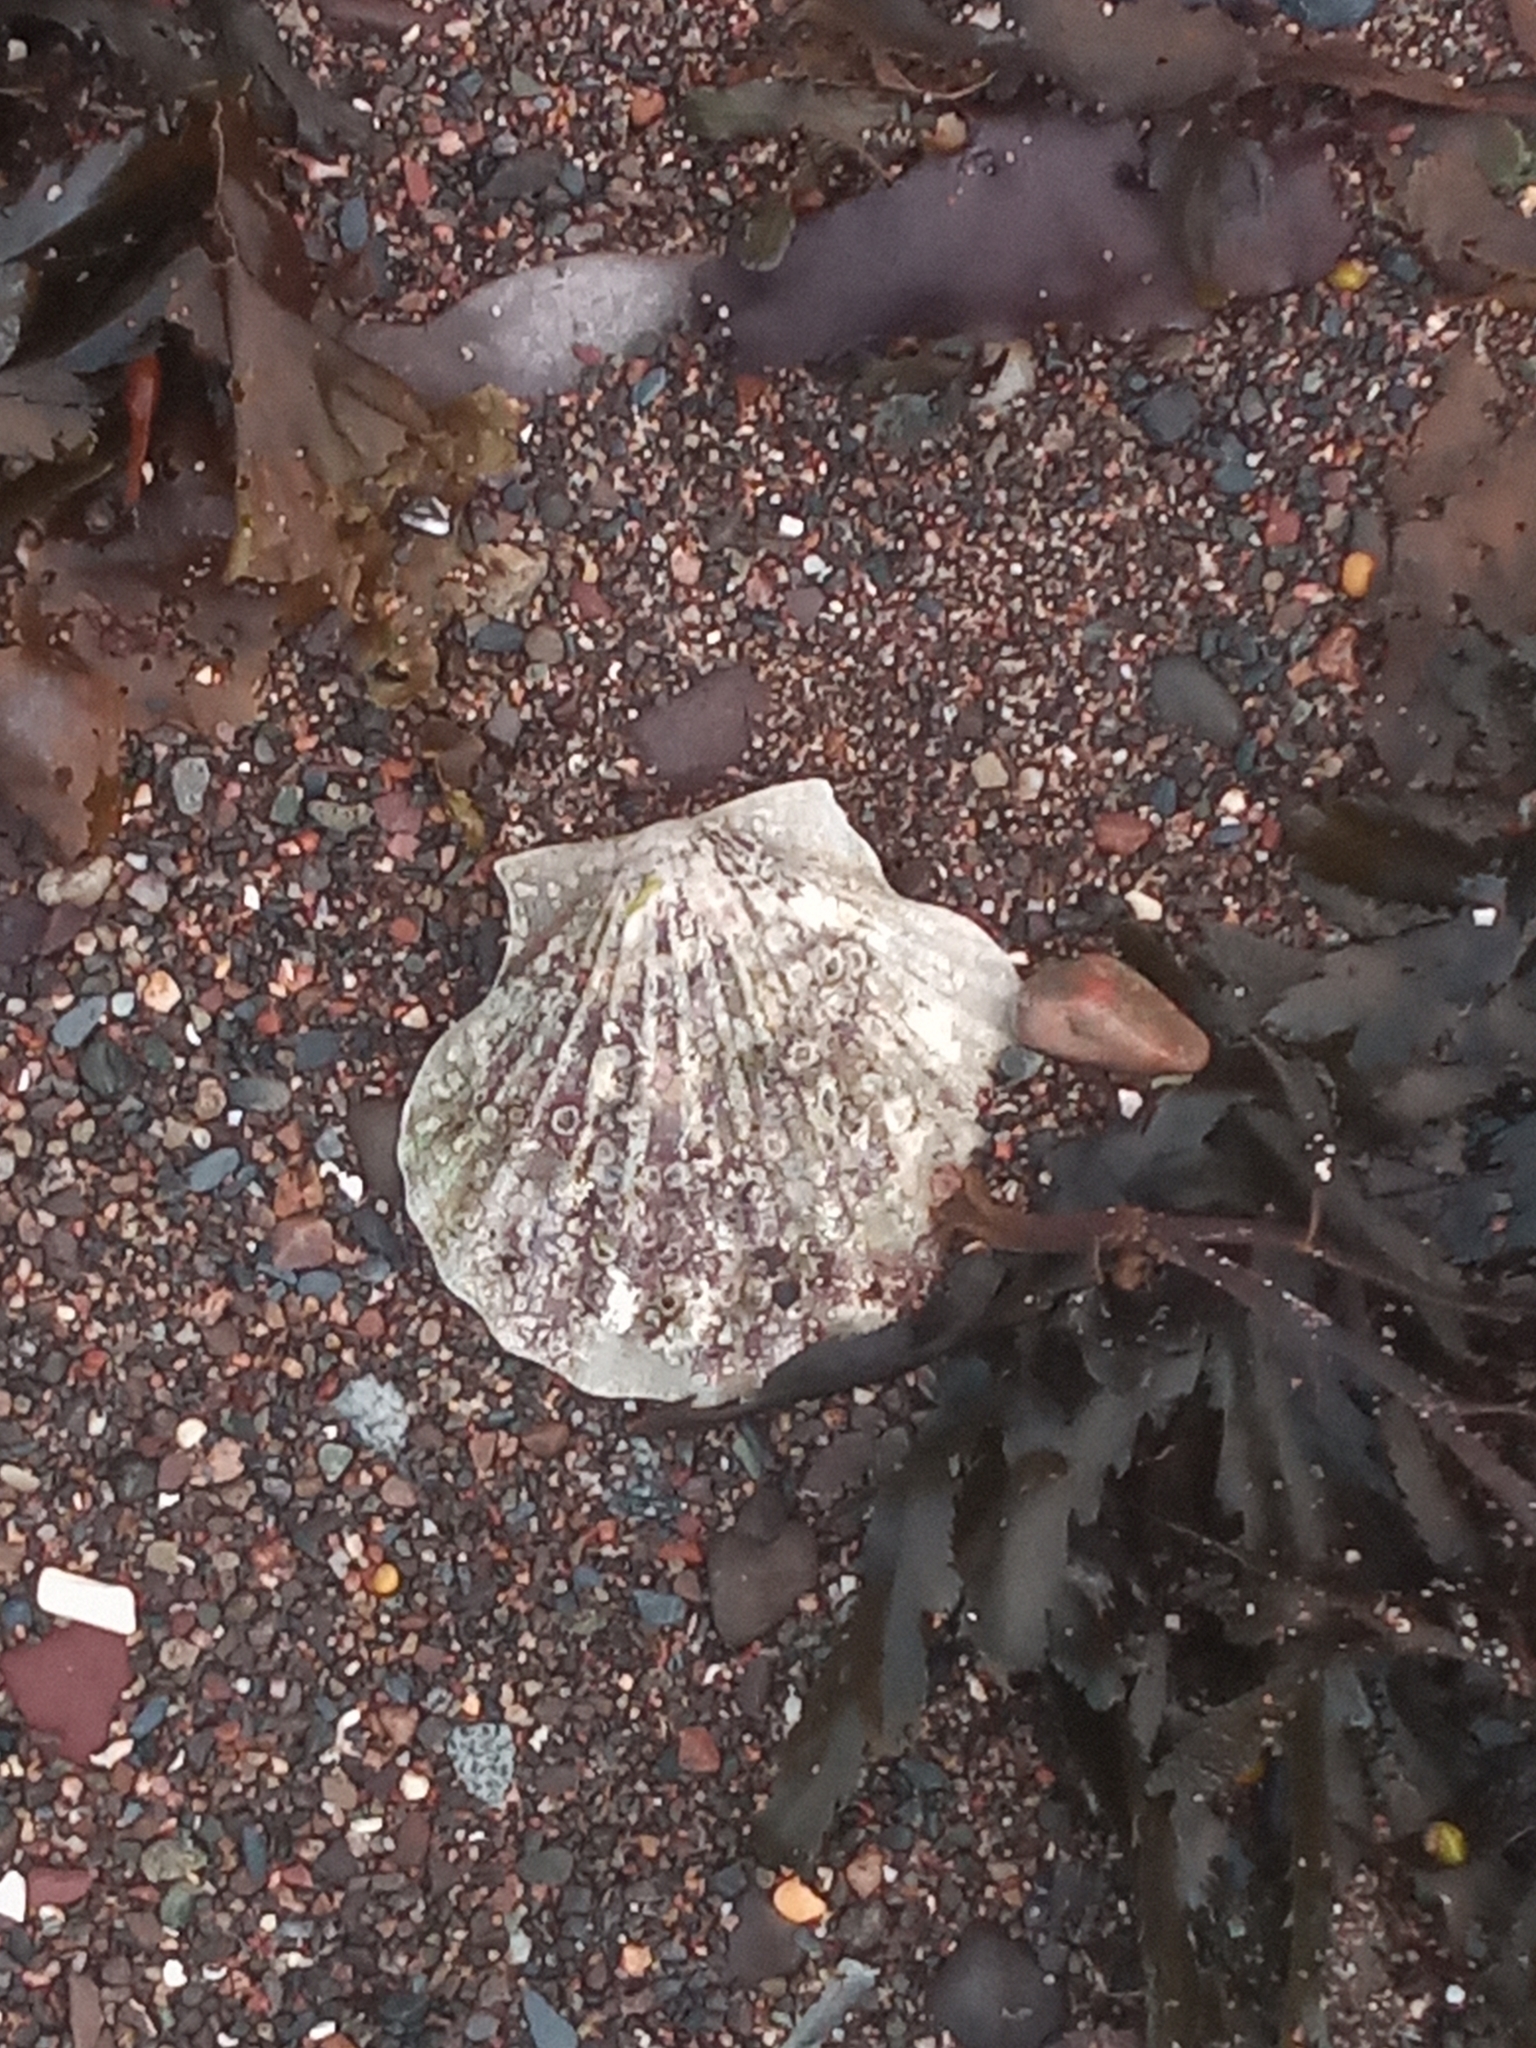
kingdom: Animalia
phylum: Mollusca
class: Bivalvia
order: Pectinida
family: Pectinidae
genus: Pecten
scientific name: Pecten maximus
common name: Great scallop
